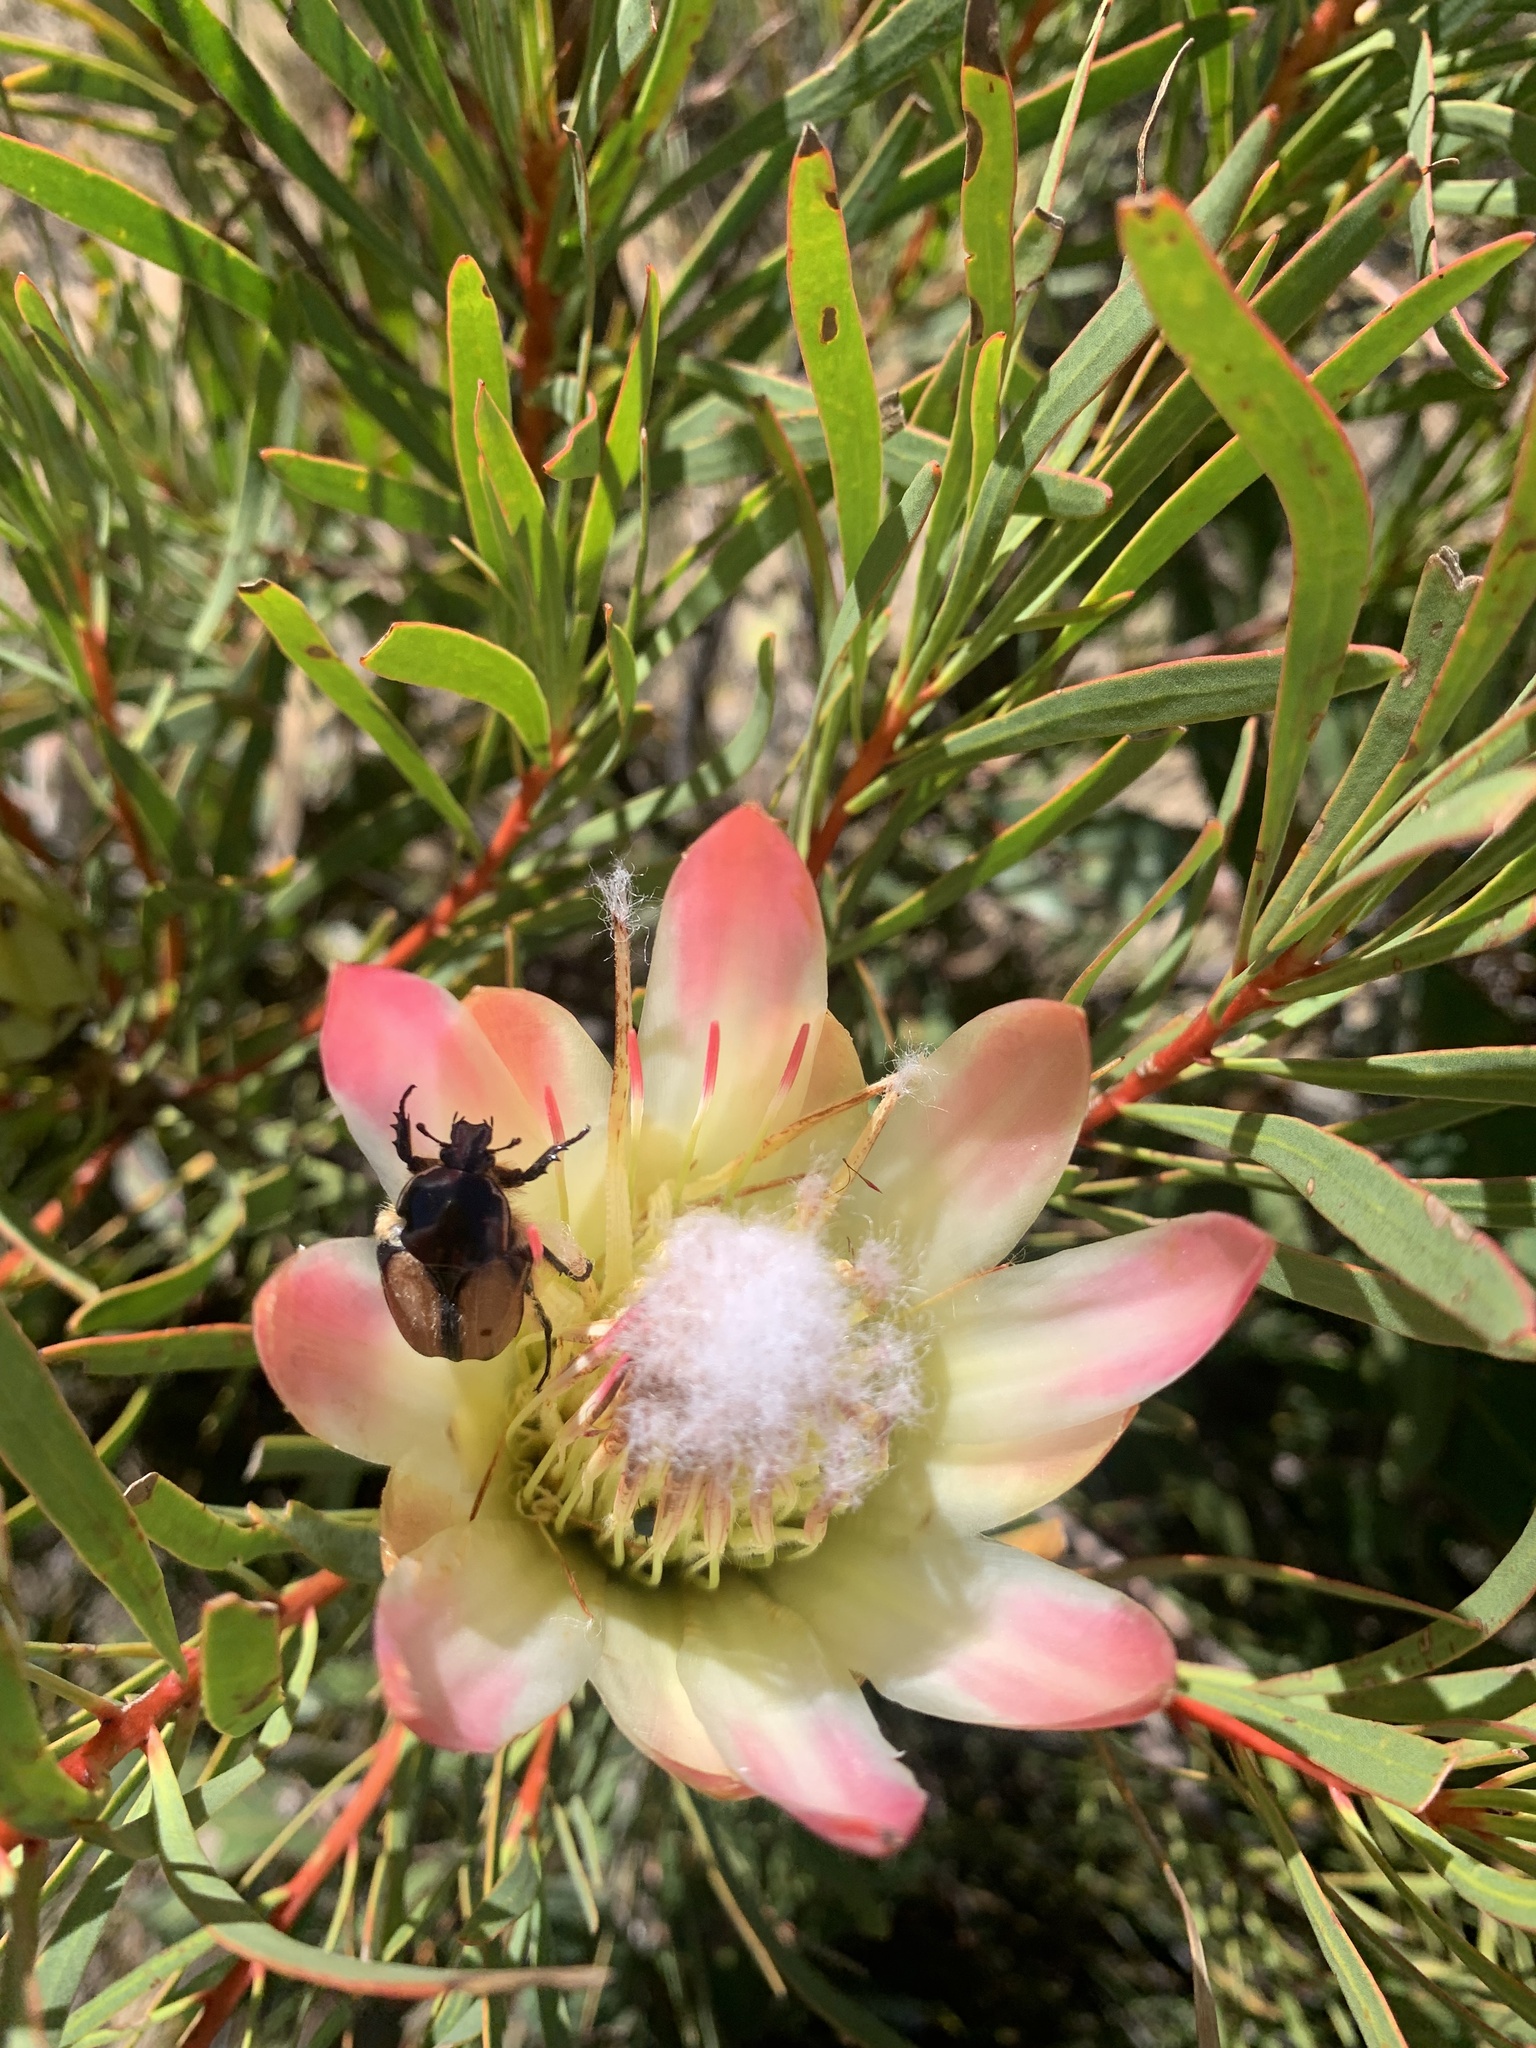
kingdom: Animalia
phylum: Arthropoda
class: Insecta
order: Coleoptera
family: Scarabaeidae
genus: Trichostetha
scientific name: Trichostetha signata
